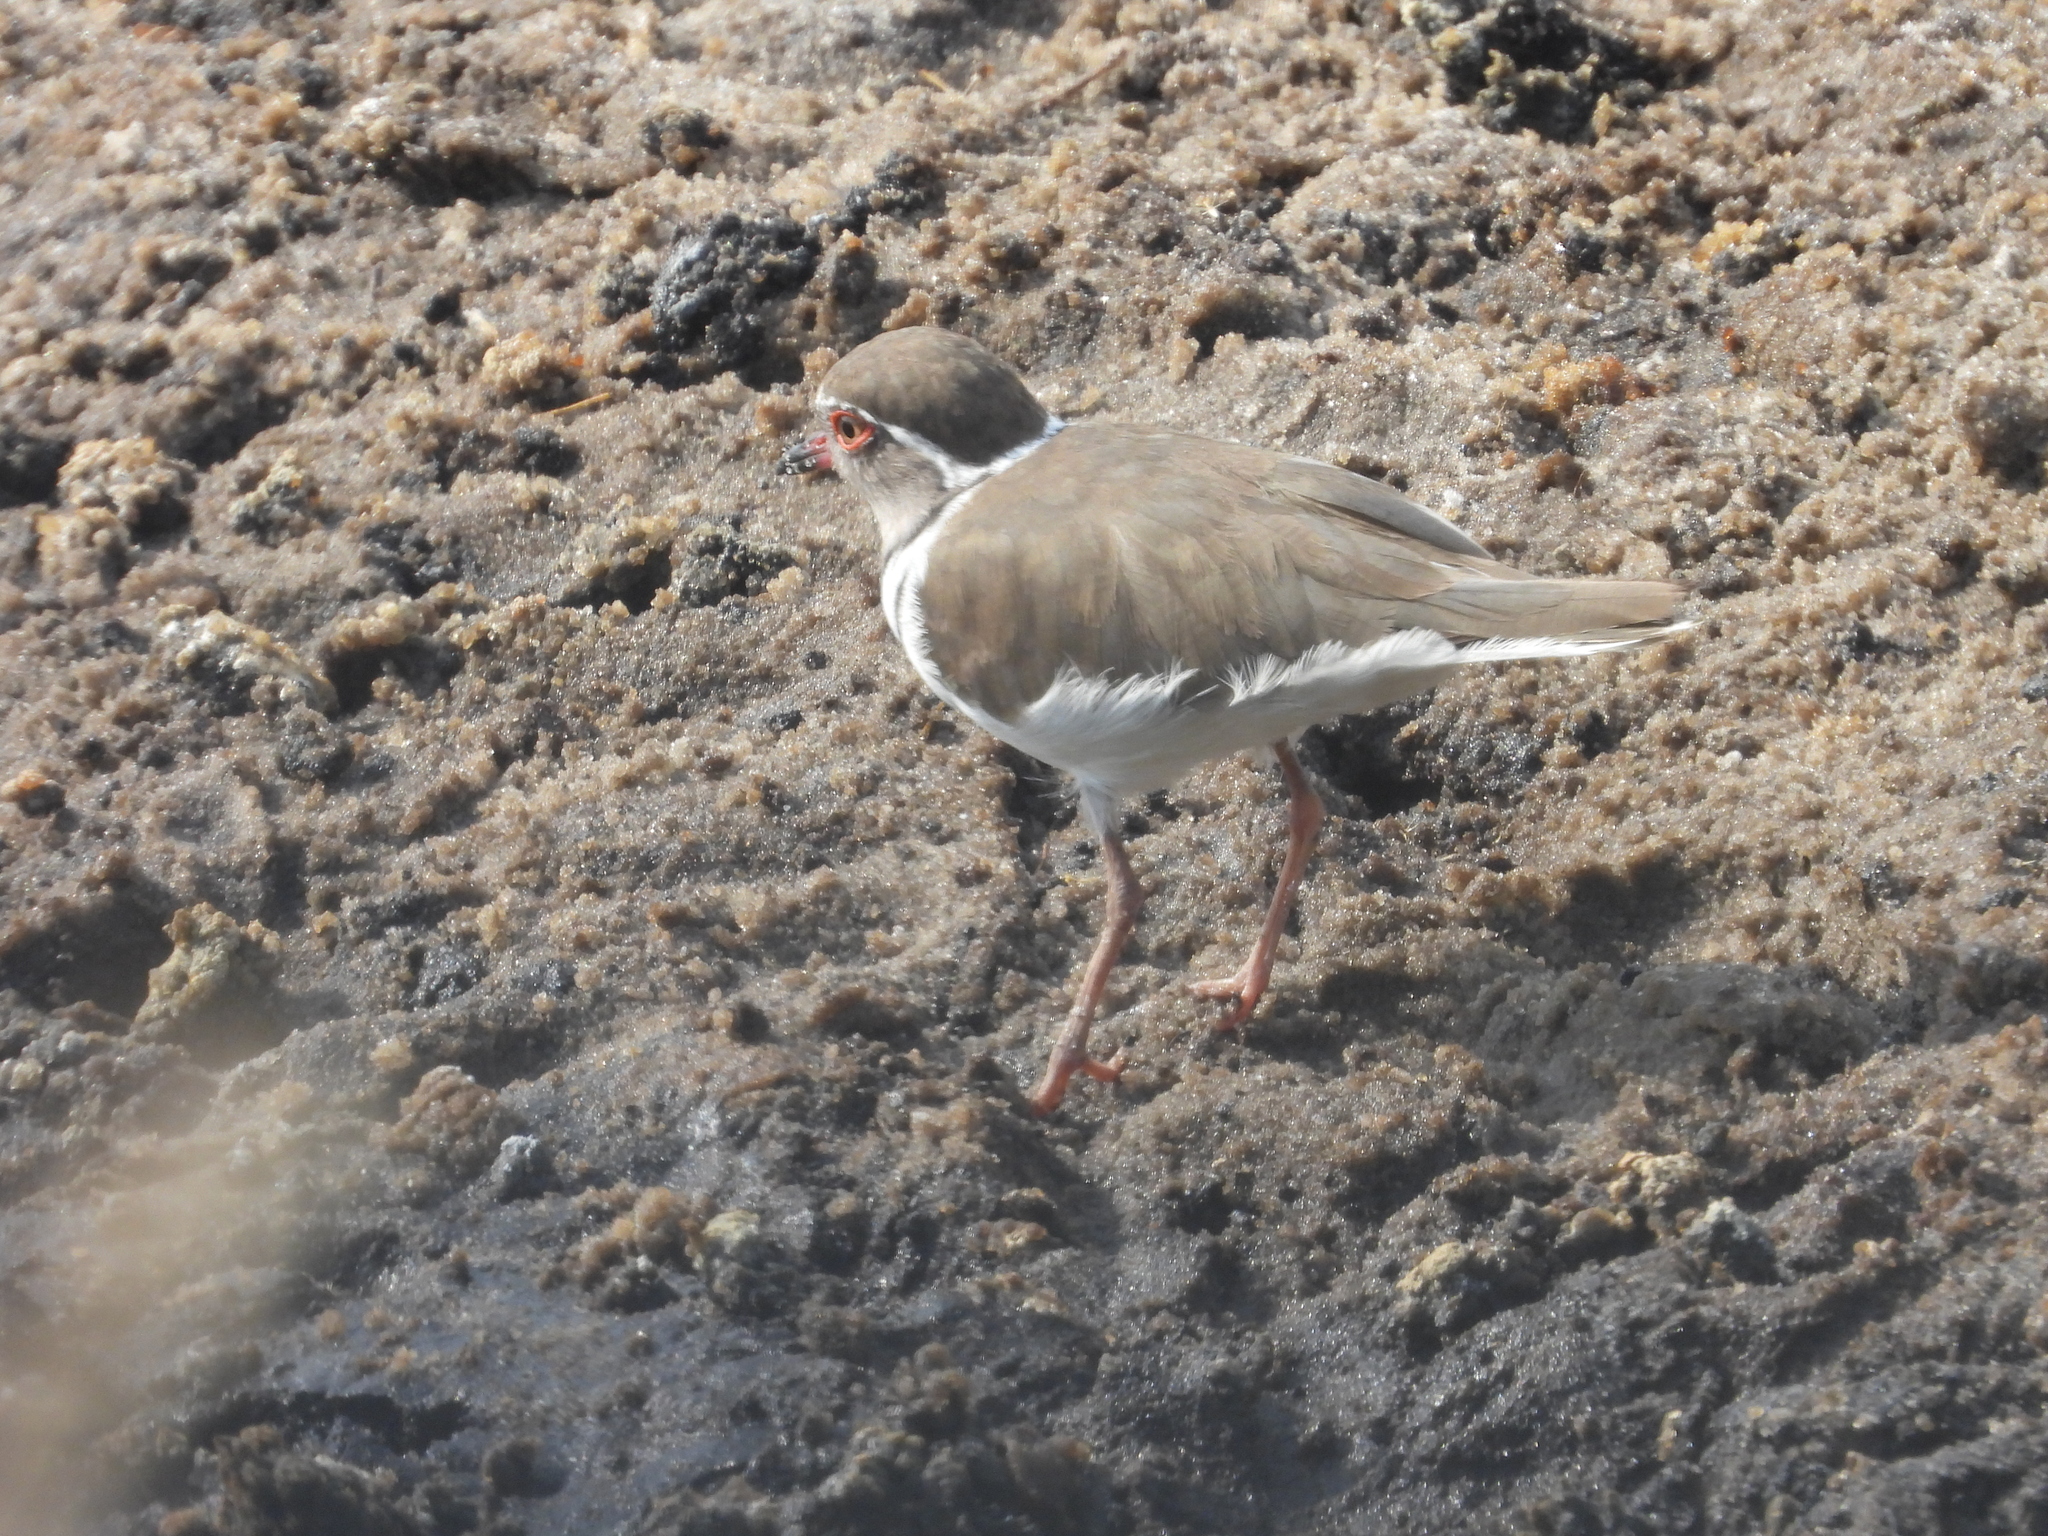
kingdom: Animalia
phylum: Chordata
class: Aves
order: Charadriiformes
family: Charadriidae
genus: Charadrius
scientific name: Charadrius tricollaris
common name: Three-banded plover
